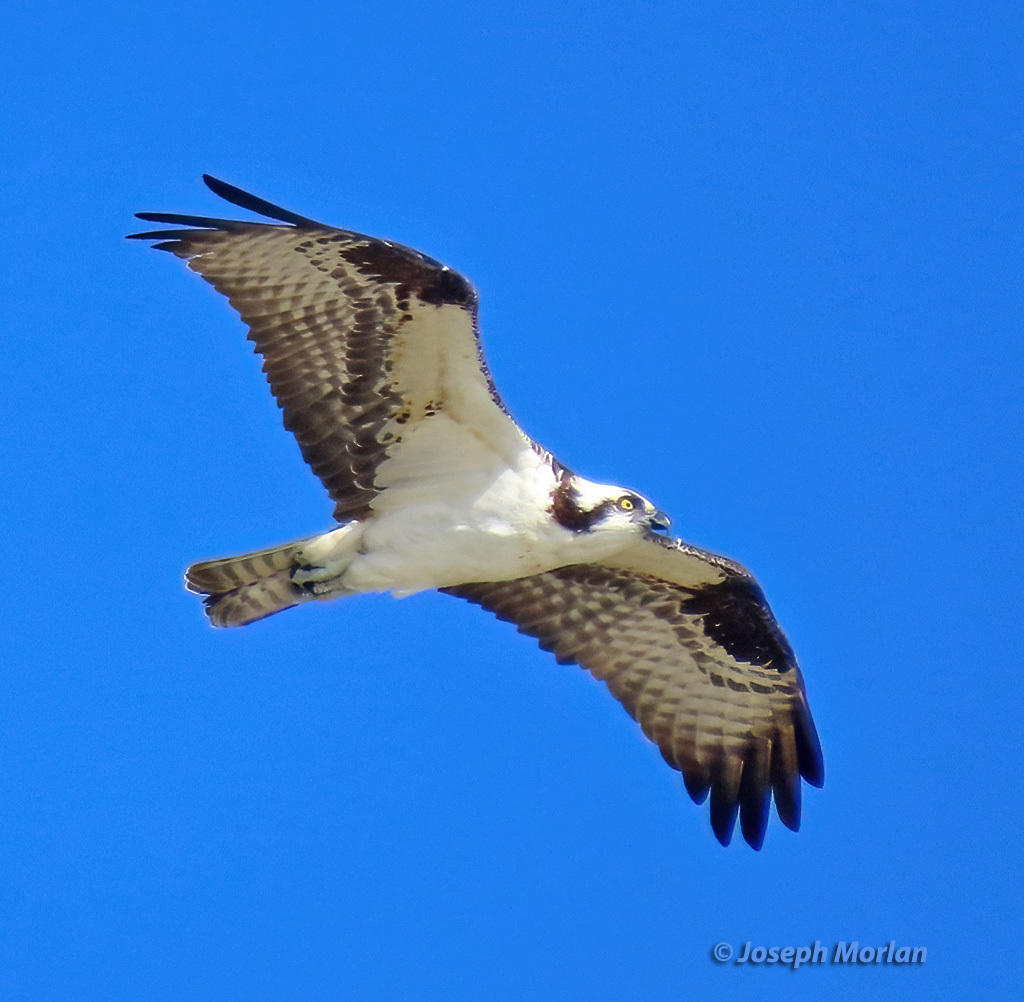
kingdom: Animalia
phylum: Chordata
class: Aves
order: Accipitriformes
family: Pandionidae
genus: Pandion
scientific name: Pandion haliaetus
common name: Osprey
